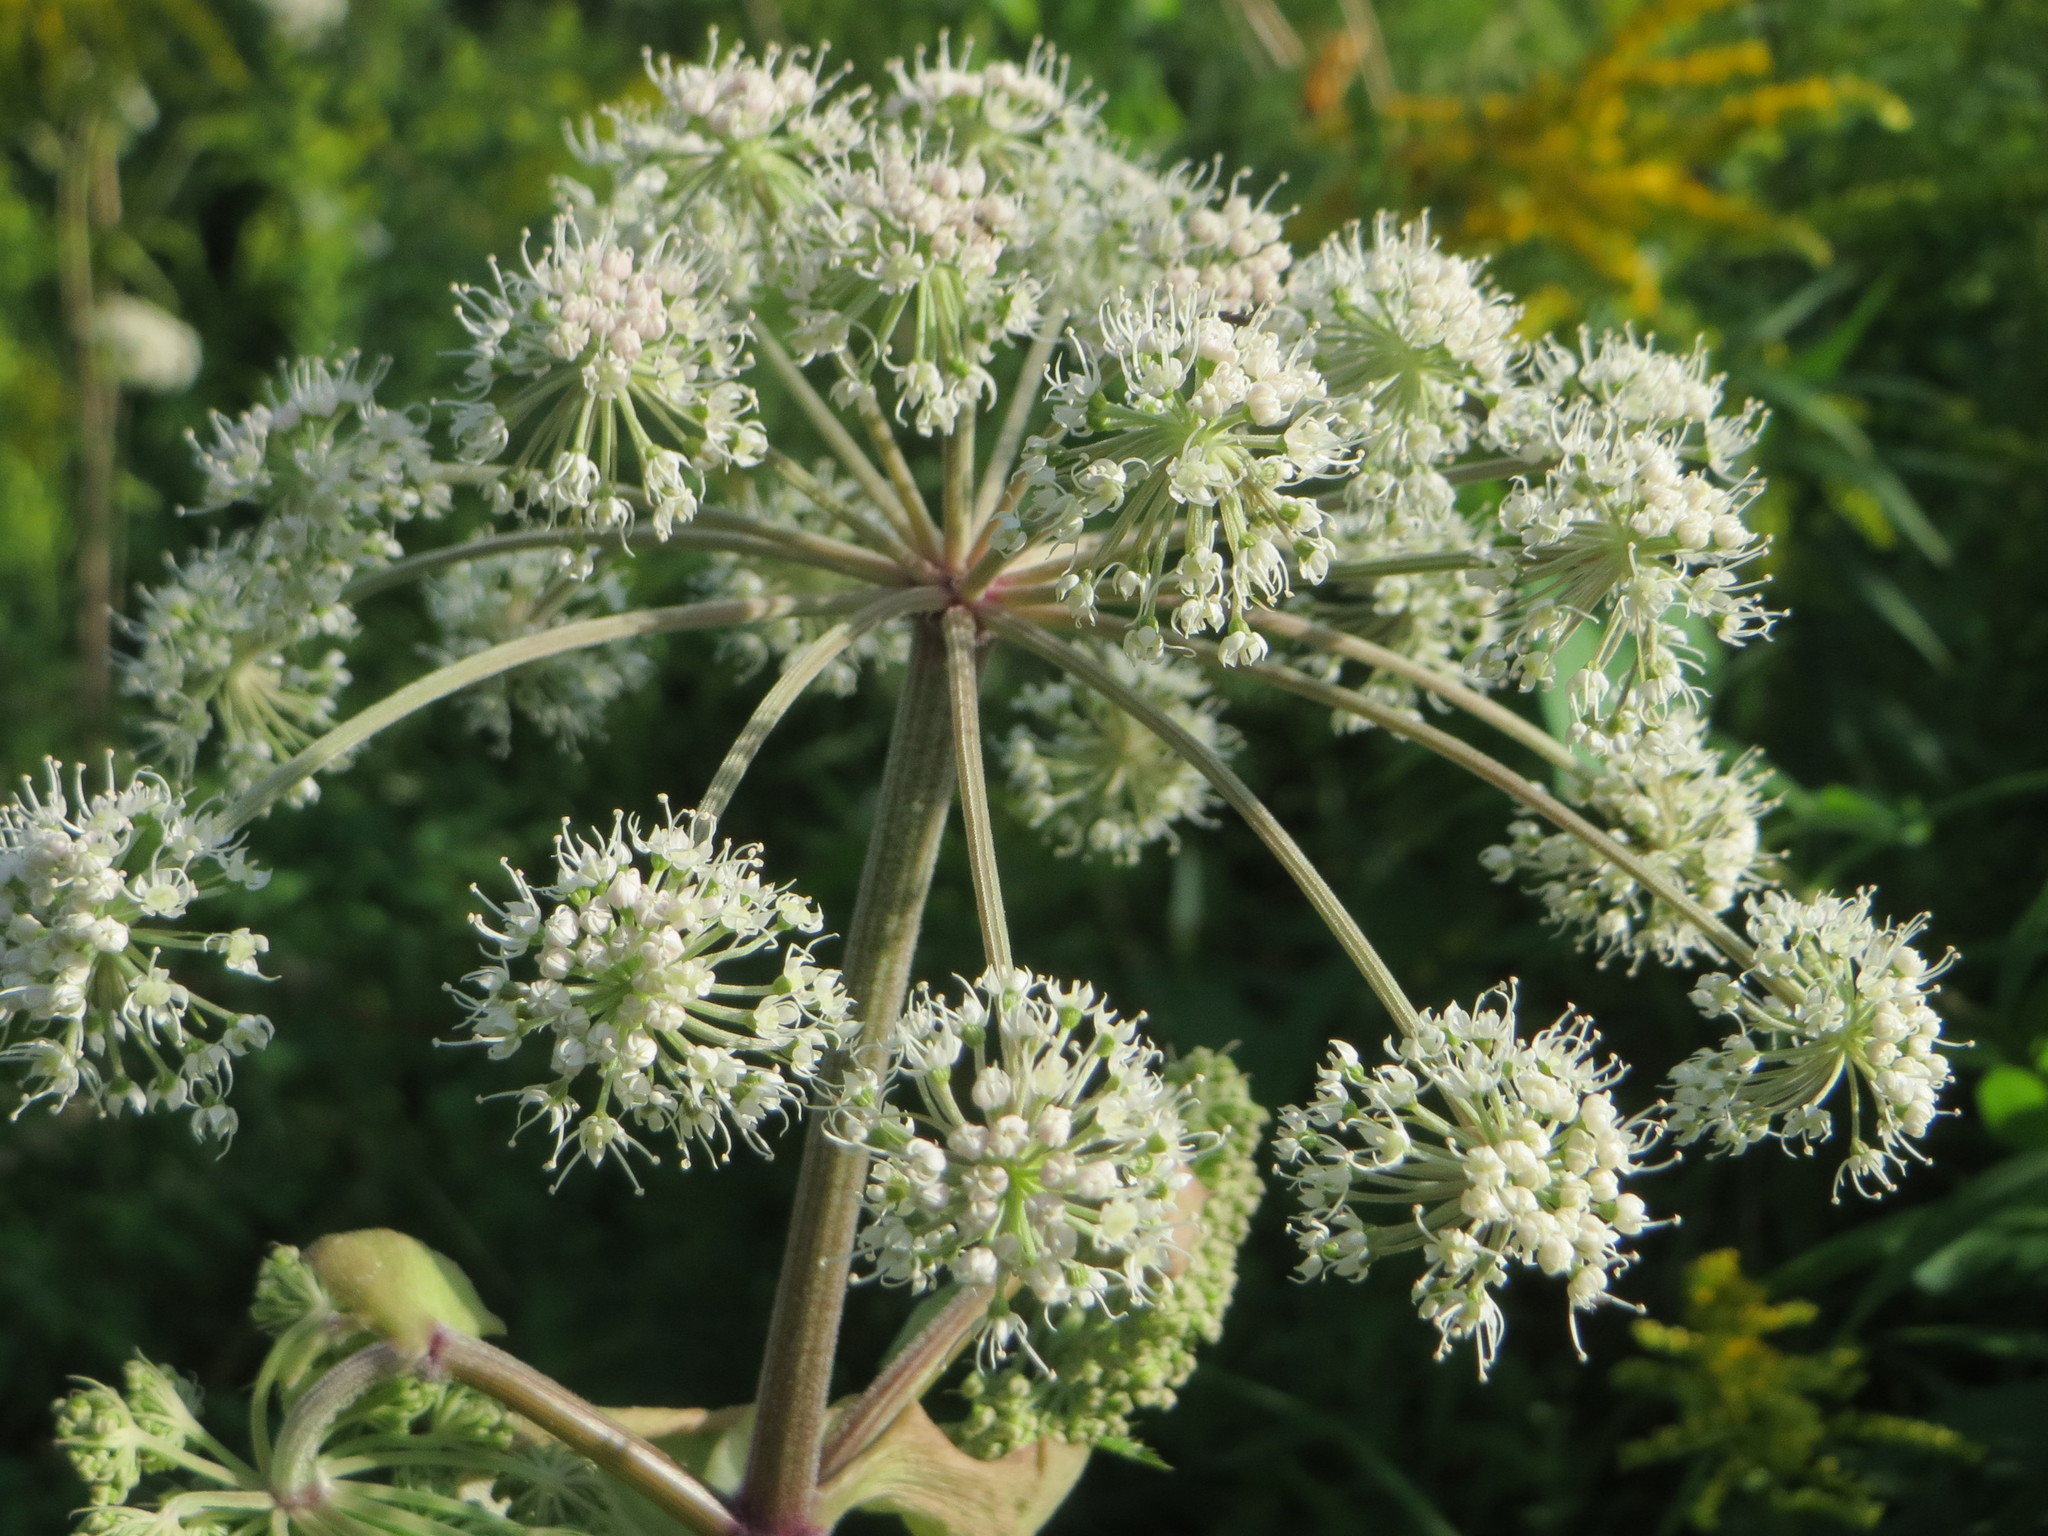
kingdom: Plantae
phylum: Tracheophyta
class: Magnoliopsida
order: Apiales
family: Apiaceae
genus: Angelica
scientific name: Angelica sylvestris
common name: Wild angelica
